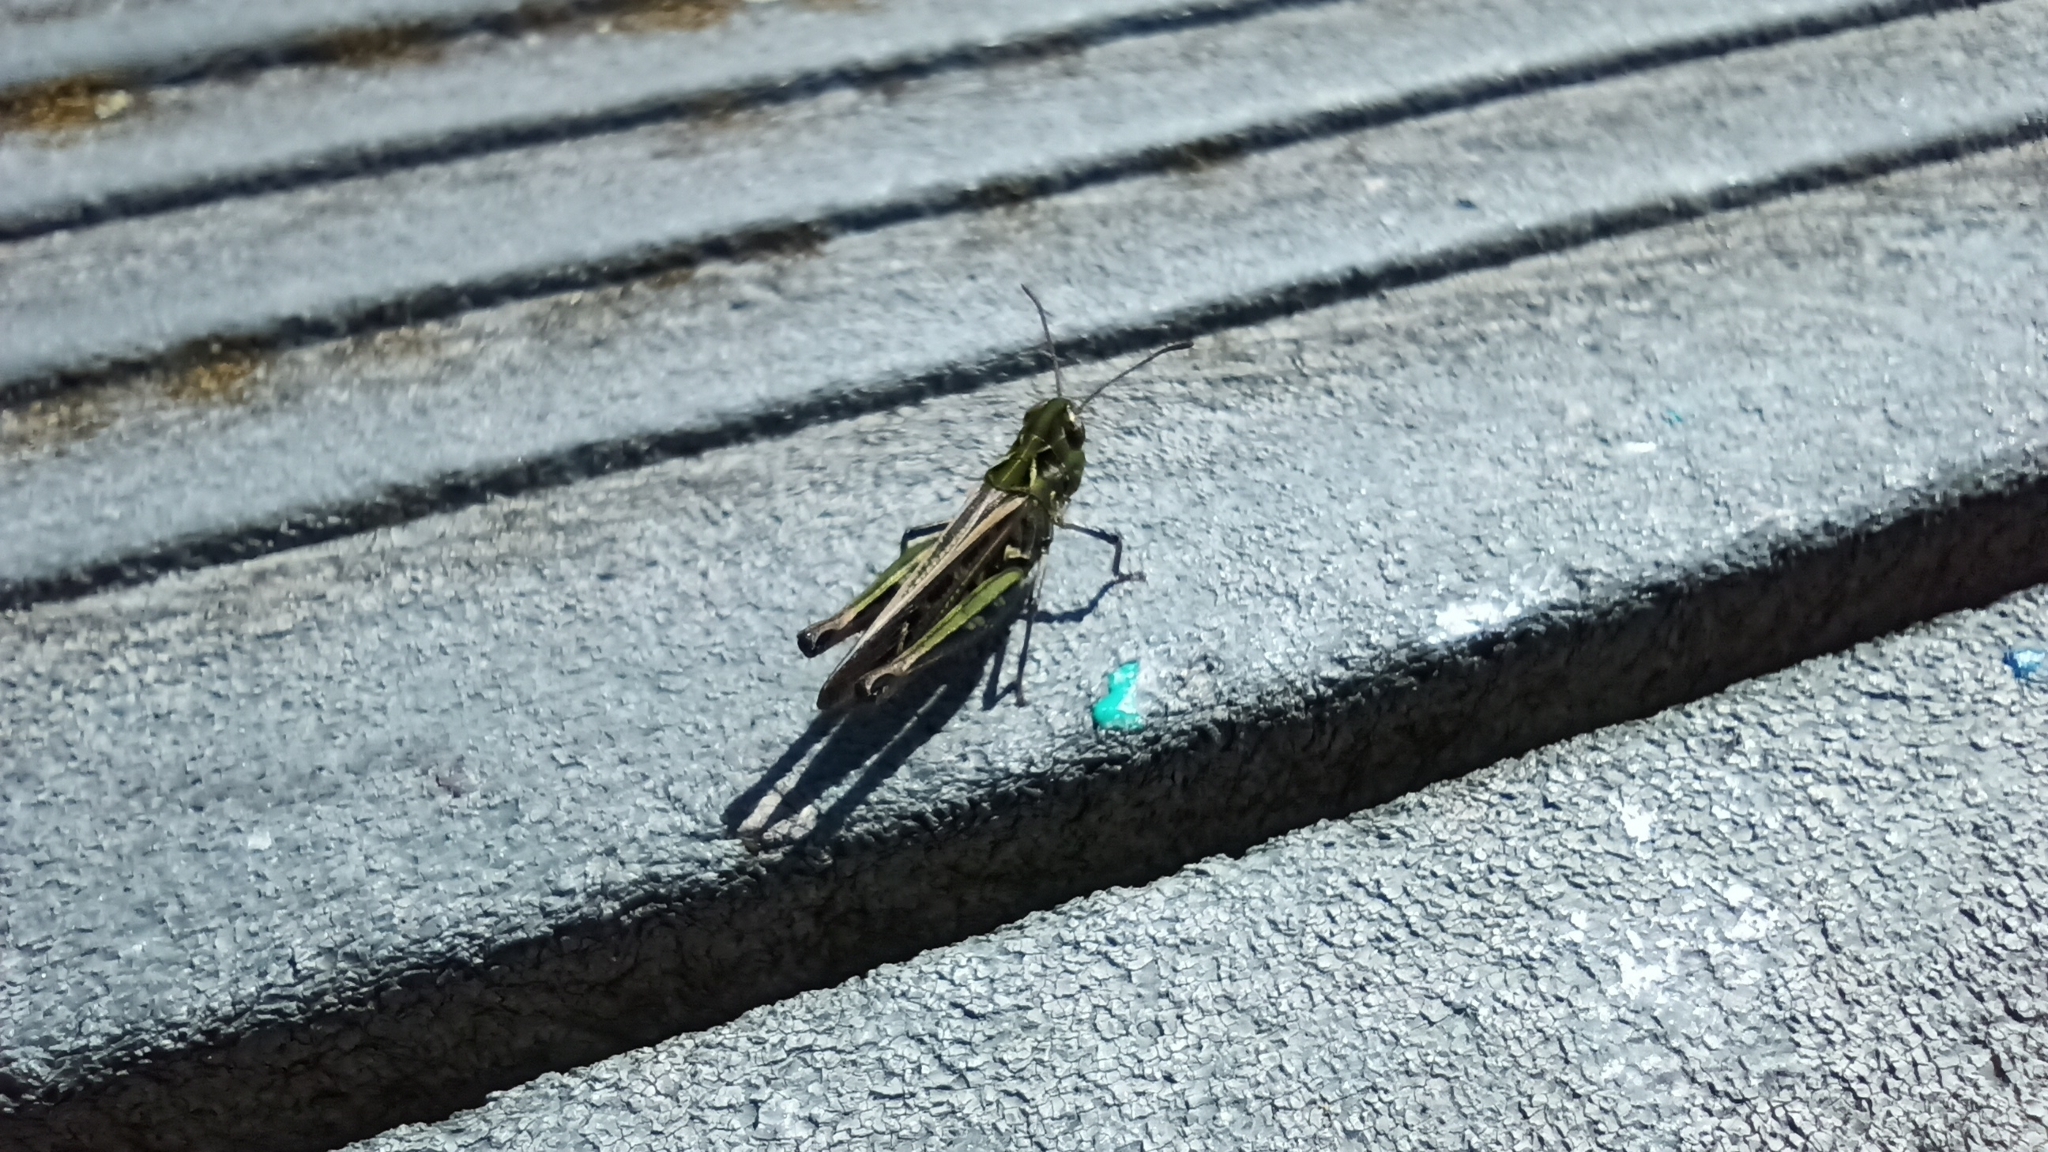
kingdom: Animalia
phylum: Arthropoda
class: Insecta
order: Orthoptera
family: Acrididae
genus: Myrmeleotettix
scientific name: Myrmeleotettix maculatus
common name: Mottled grasshopper
